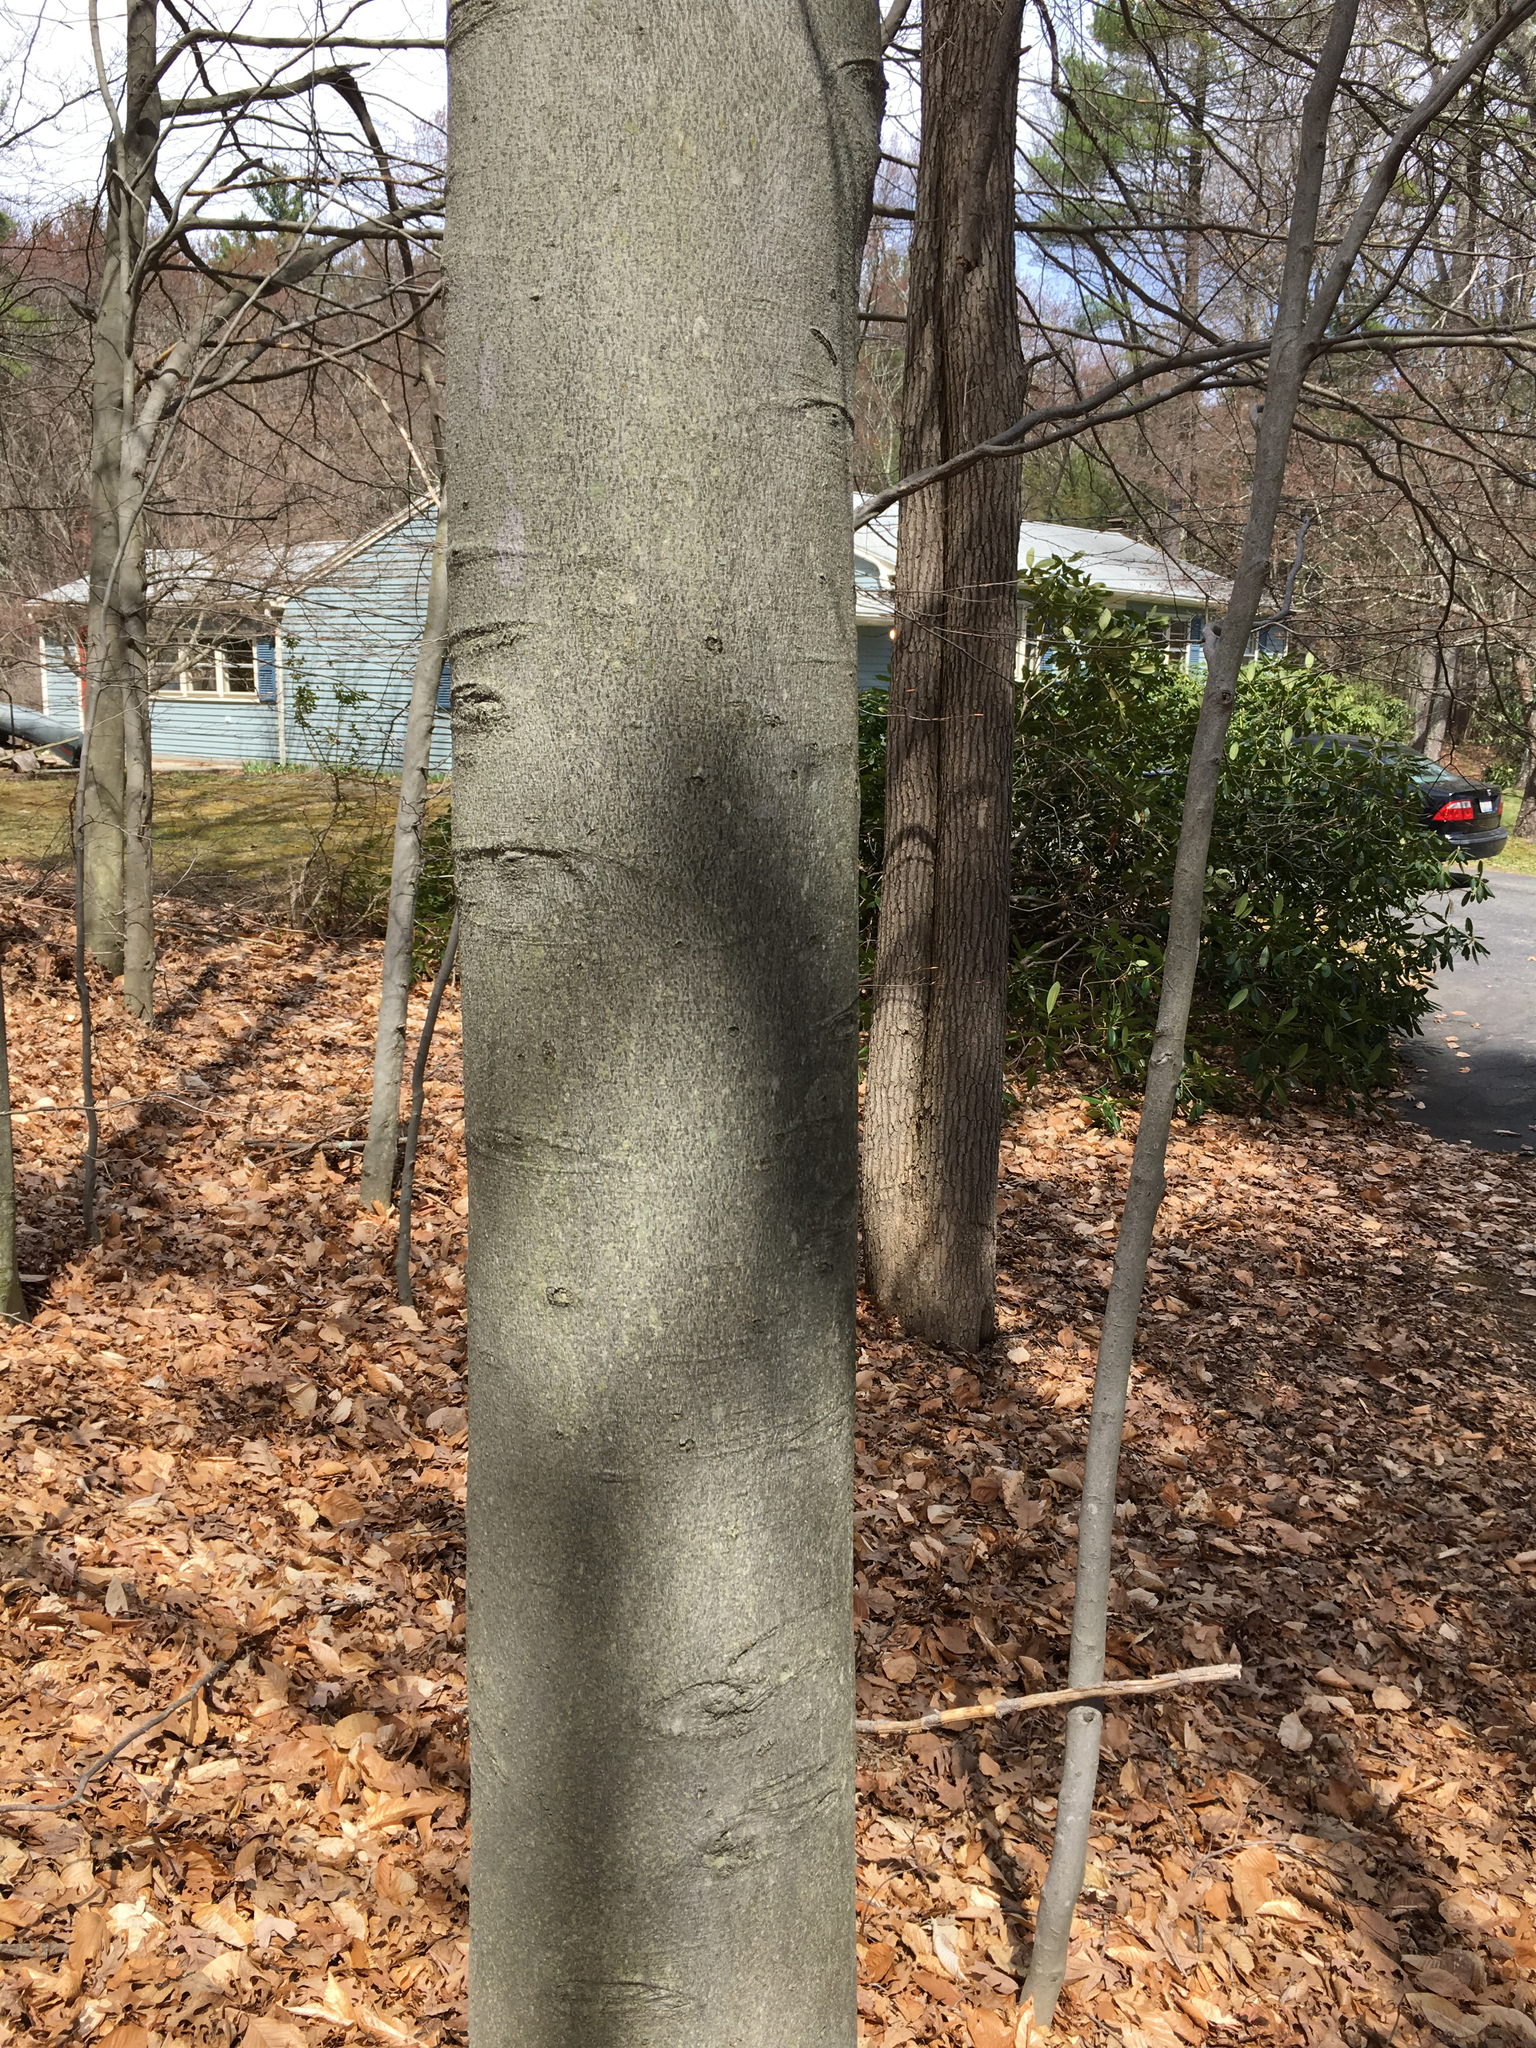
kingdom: Plantae
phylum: Tracheophyta
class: Magnoliopsida
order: Fagales
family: Fagaceae
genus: Fagus
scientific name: Fagus grandifolia
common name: American beech
